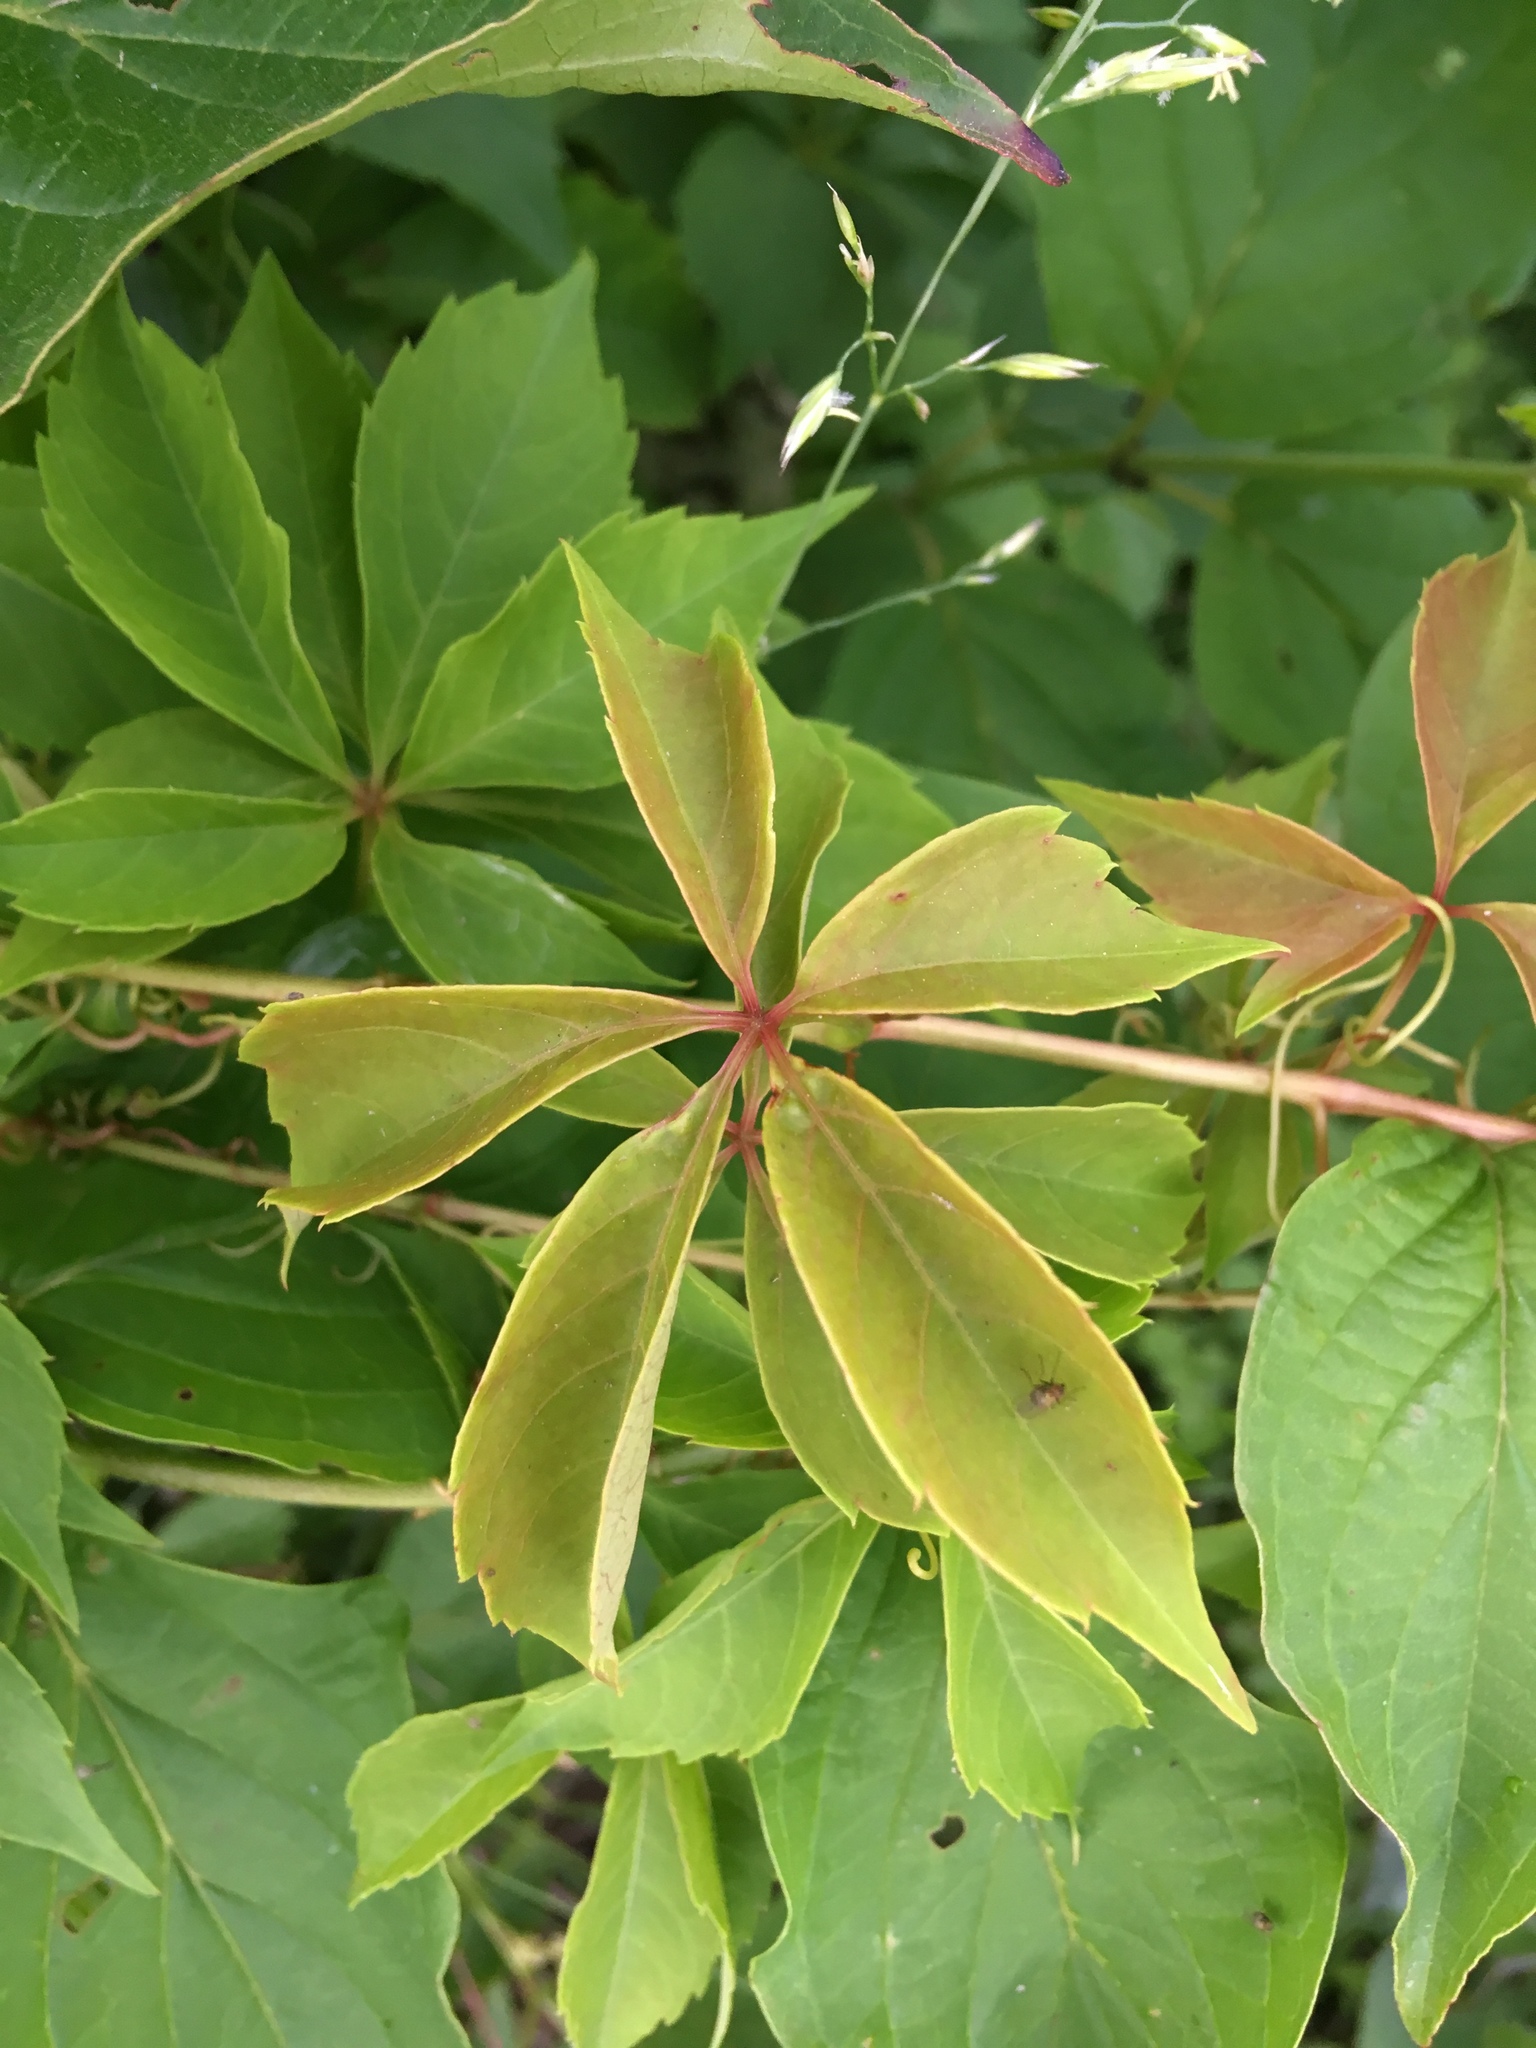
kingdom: Plantae
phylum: Tracheophyta
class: Magnoliopsida
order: Vitales
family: Vitaceae
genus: Parthenocissus
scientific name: Parthenocissus quinquefolia
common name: Virginia-creeper
